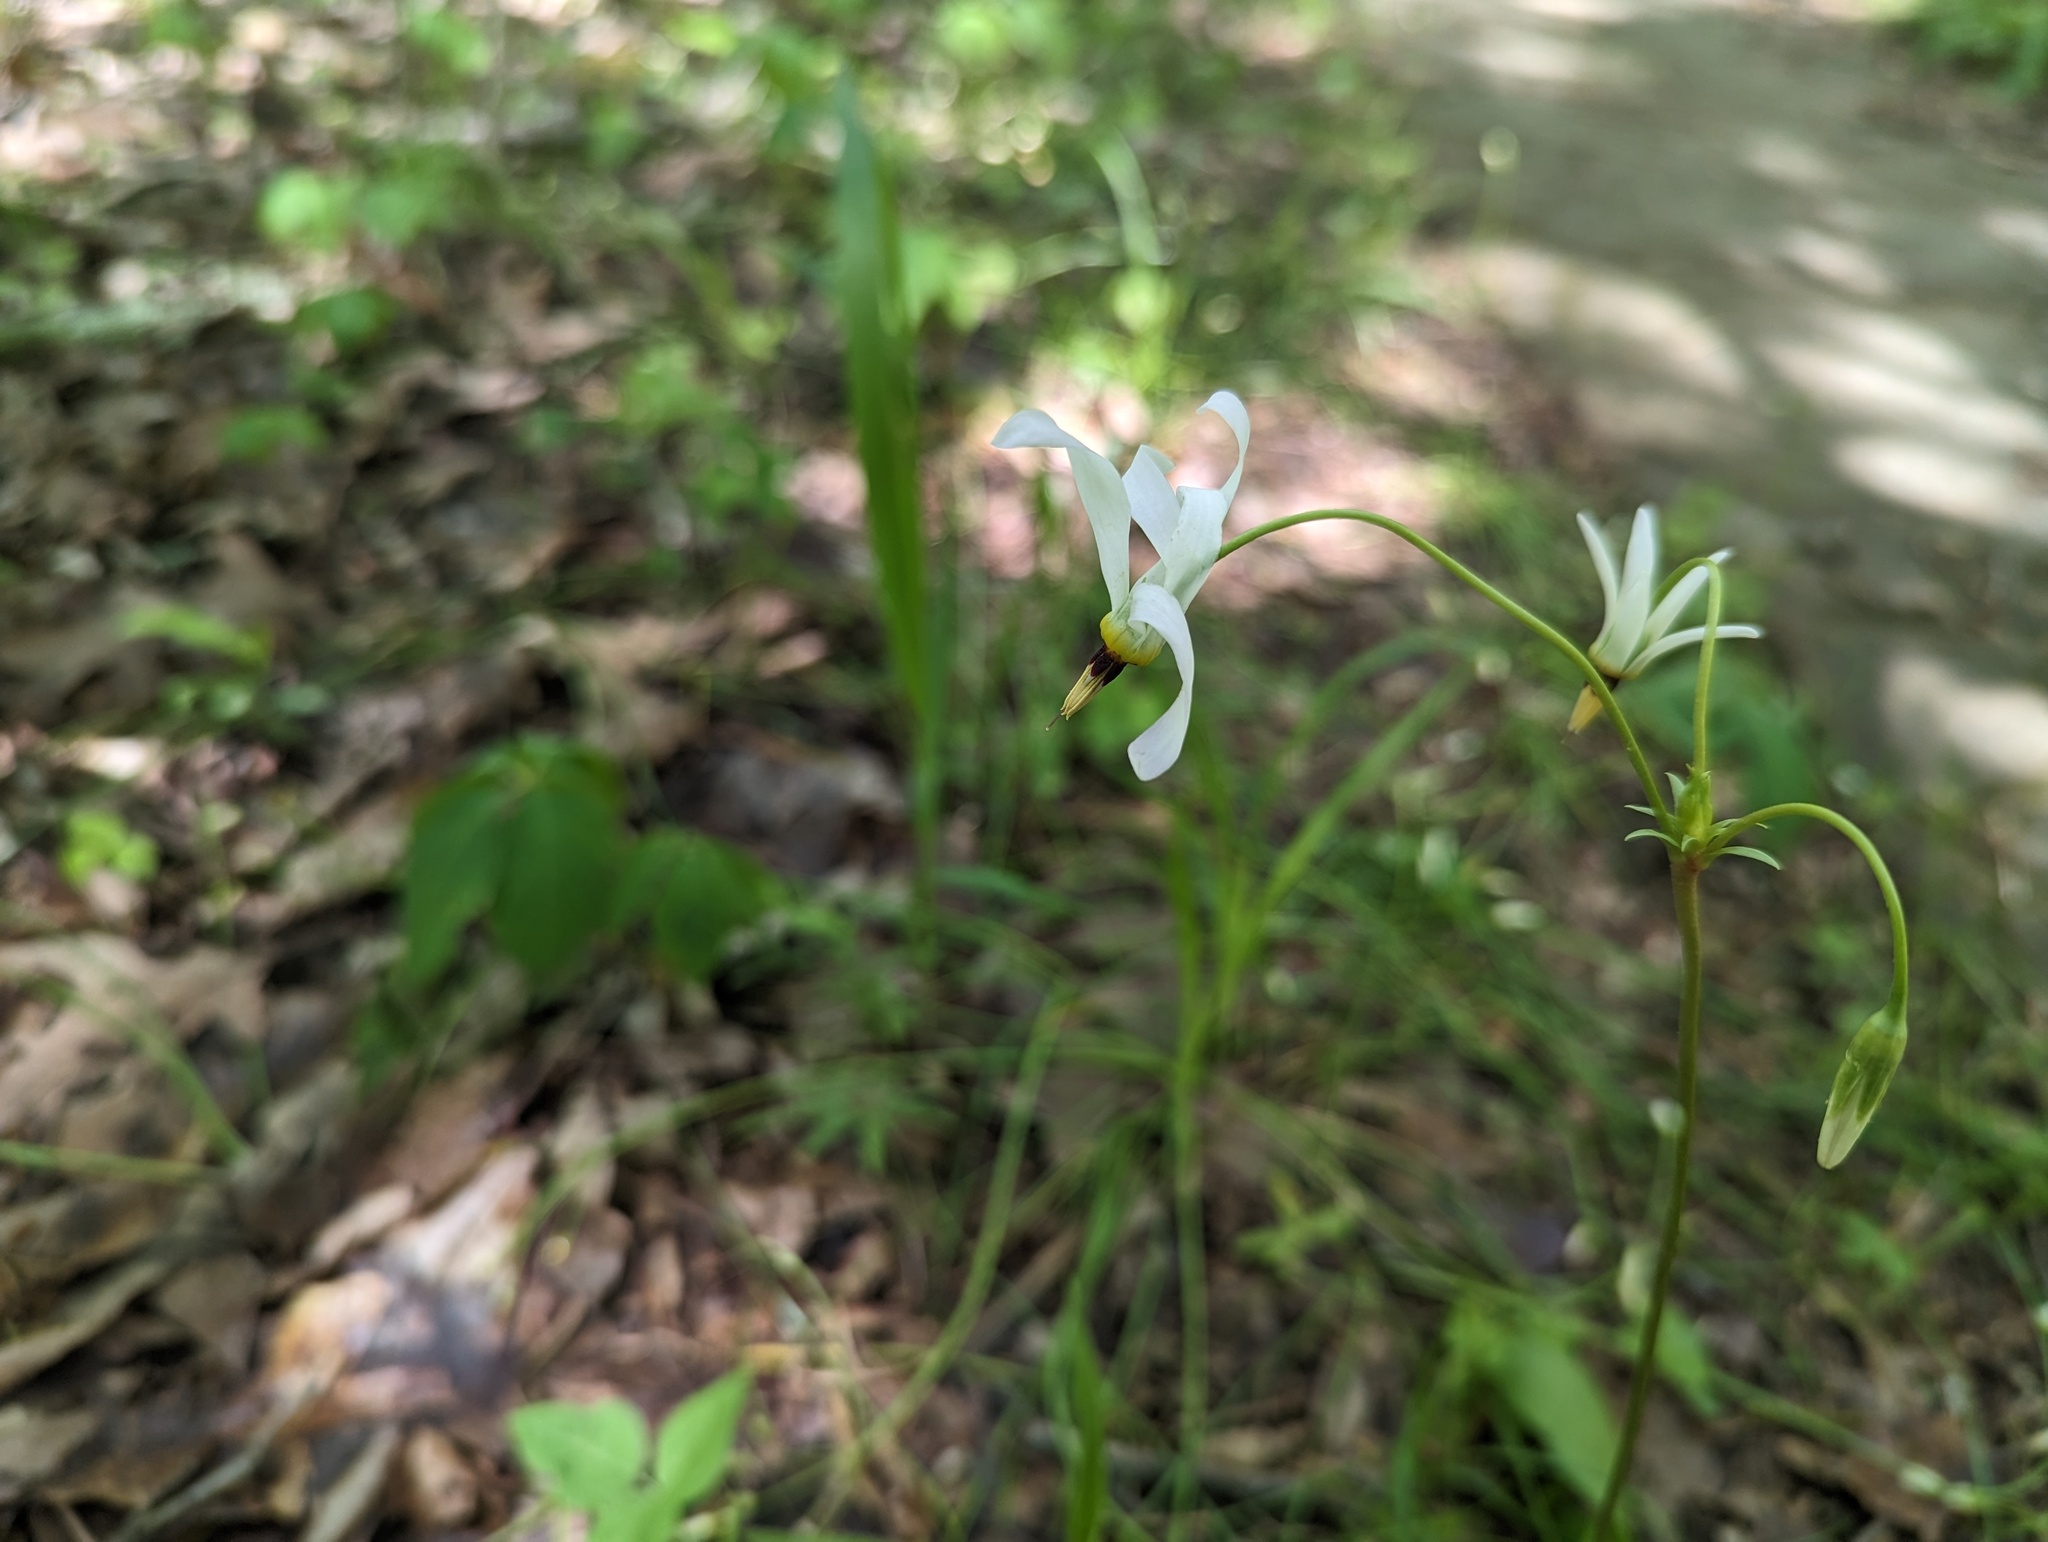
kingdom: Plantae
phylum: Tracheophyta
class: Magnoliopsida
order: Ericales
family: Primulaceae
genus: Dodecatheon
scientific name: Dodecatheon meadia
